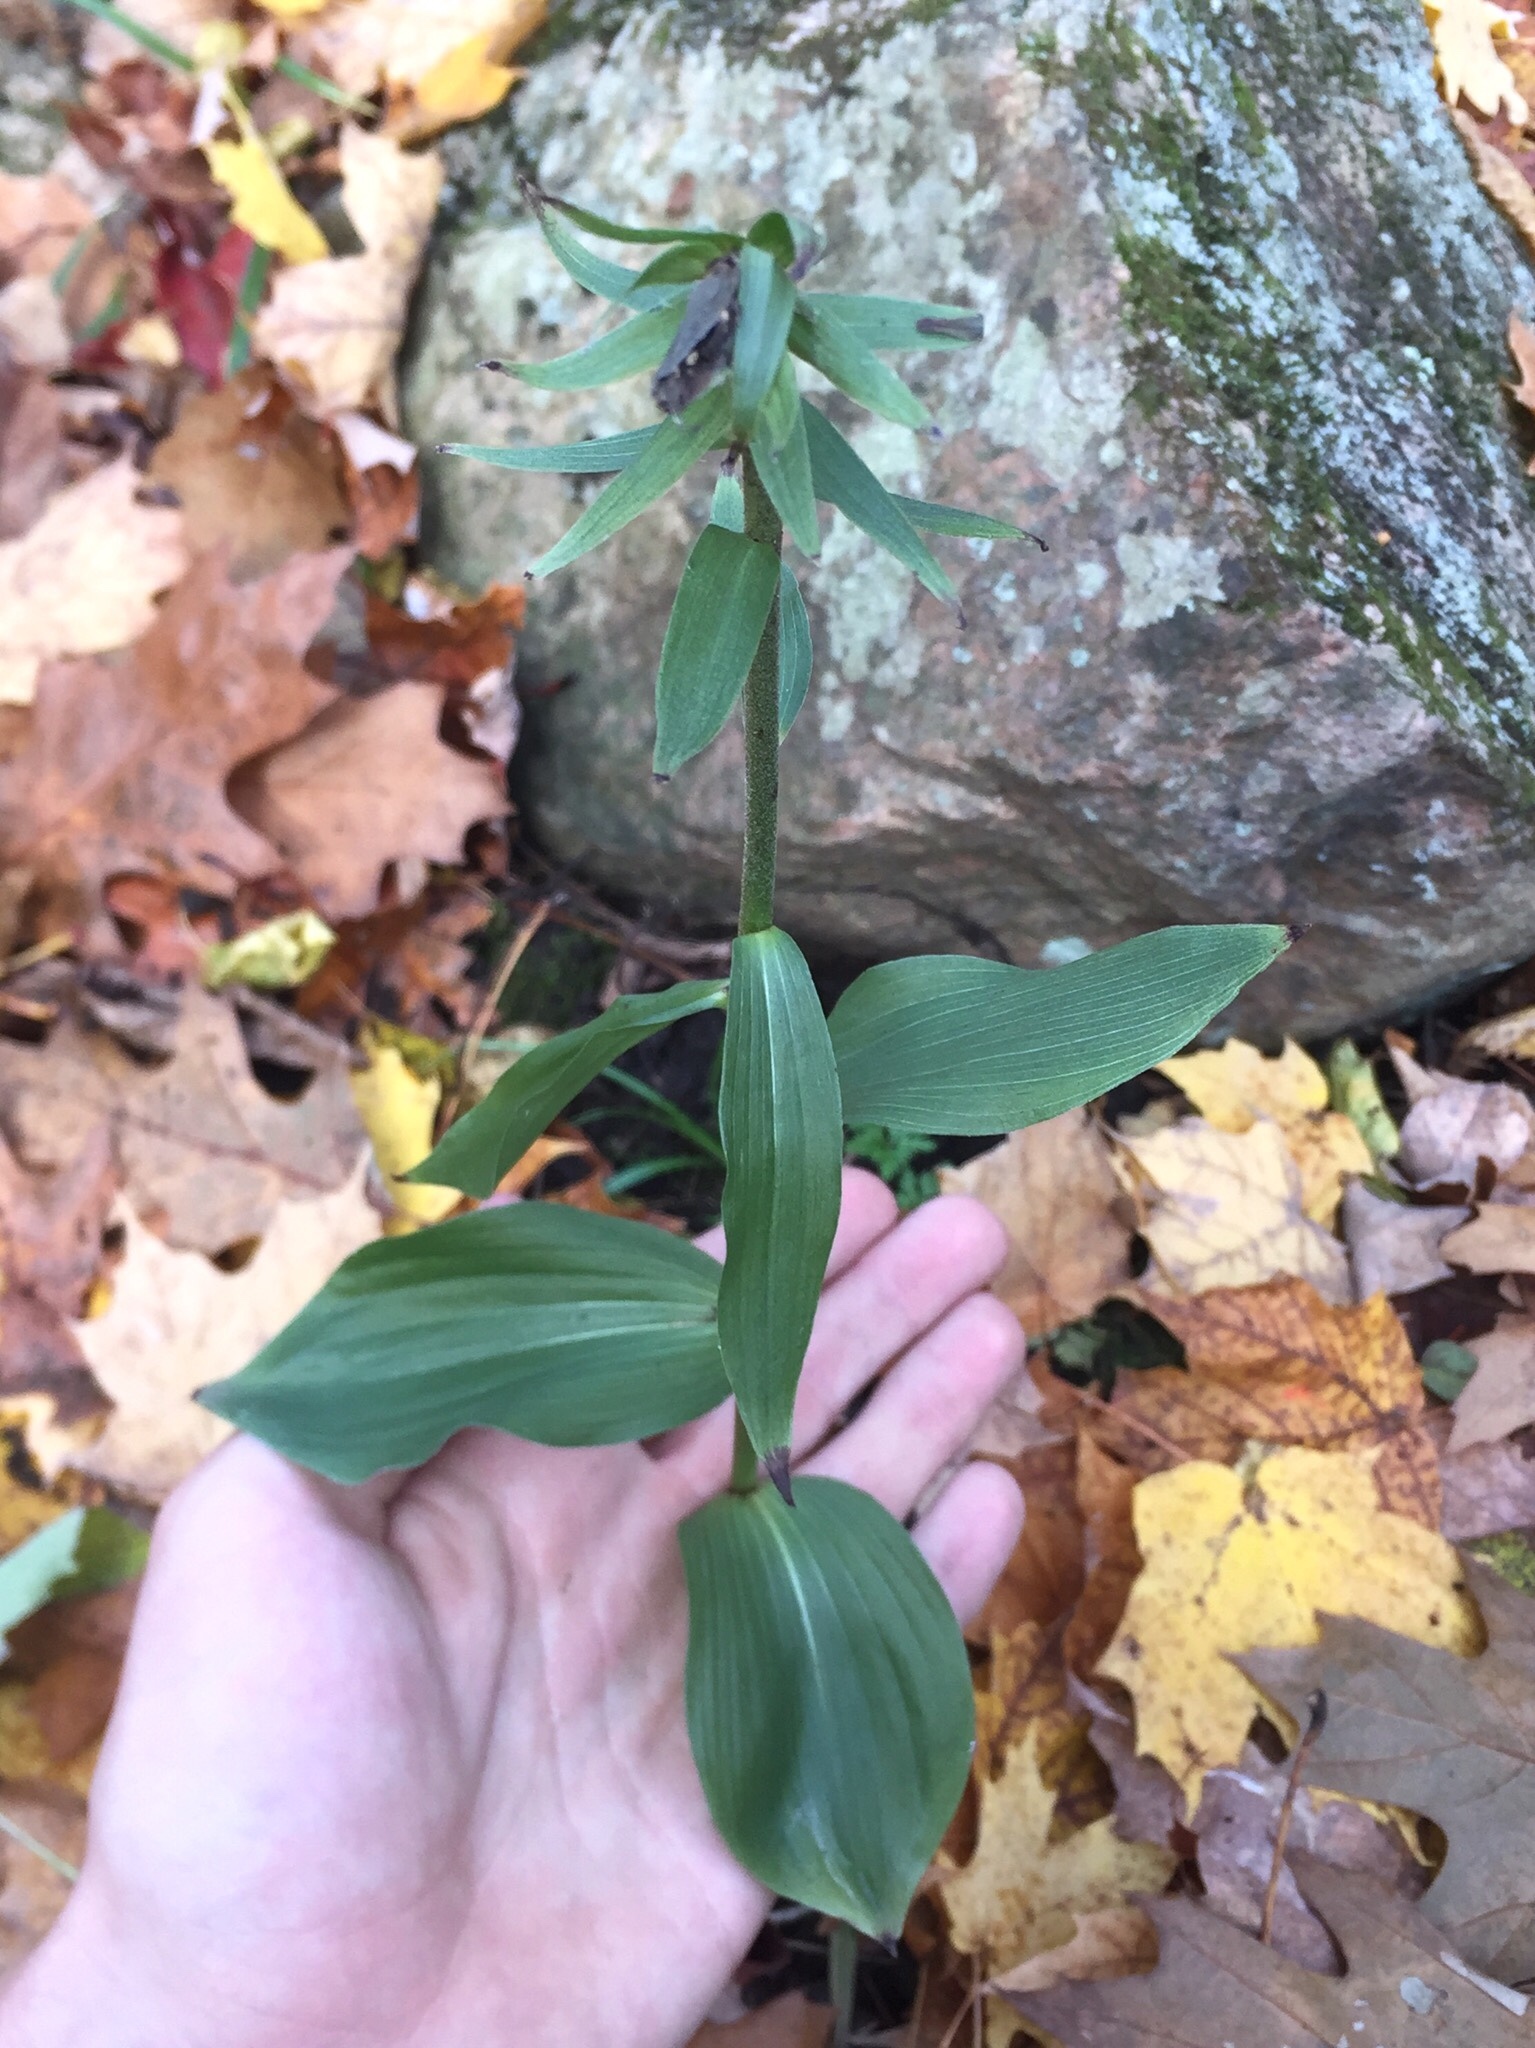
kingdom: Plantae
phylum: Tracheophyta
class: Liliopsida
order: Asparagales
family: Orchidaceae
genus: Epipactis
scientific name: Epipactis helleborine
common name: Broad-leaved helleborine
